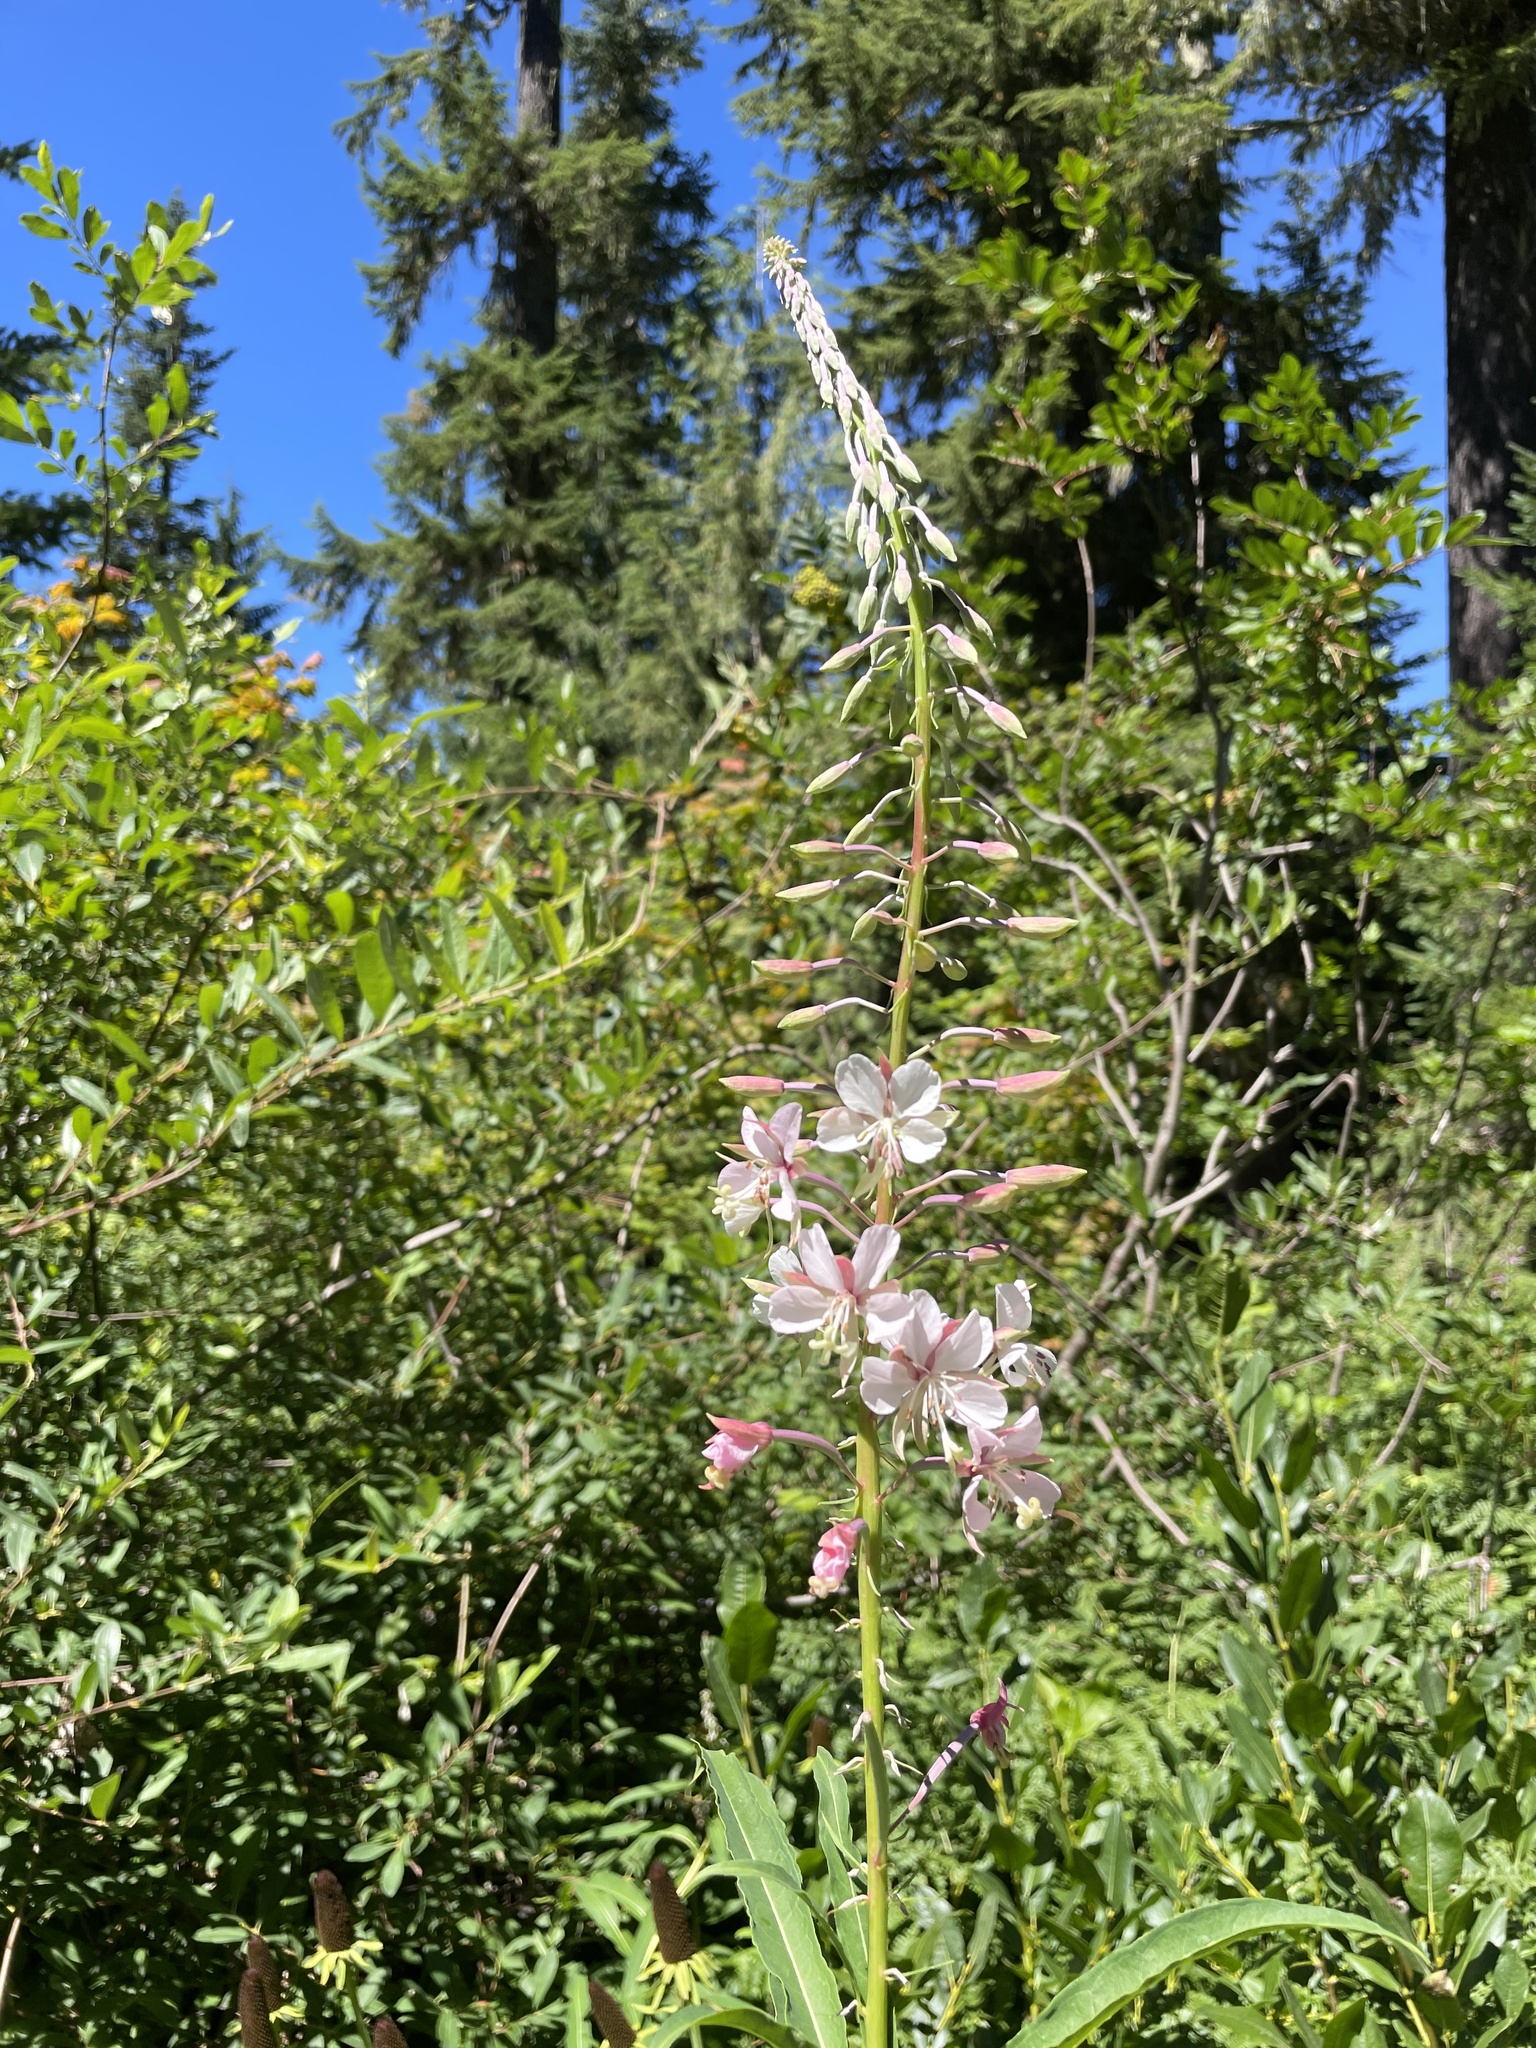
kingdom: Plantae
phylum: Tracheophyta
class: Magnoliopsida
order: Myrtales
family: Onagraceae
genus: Chamaenerion
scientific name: Chamaenerion angustifolium
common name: Fireweed
